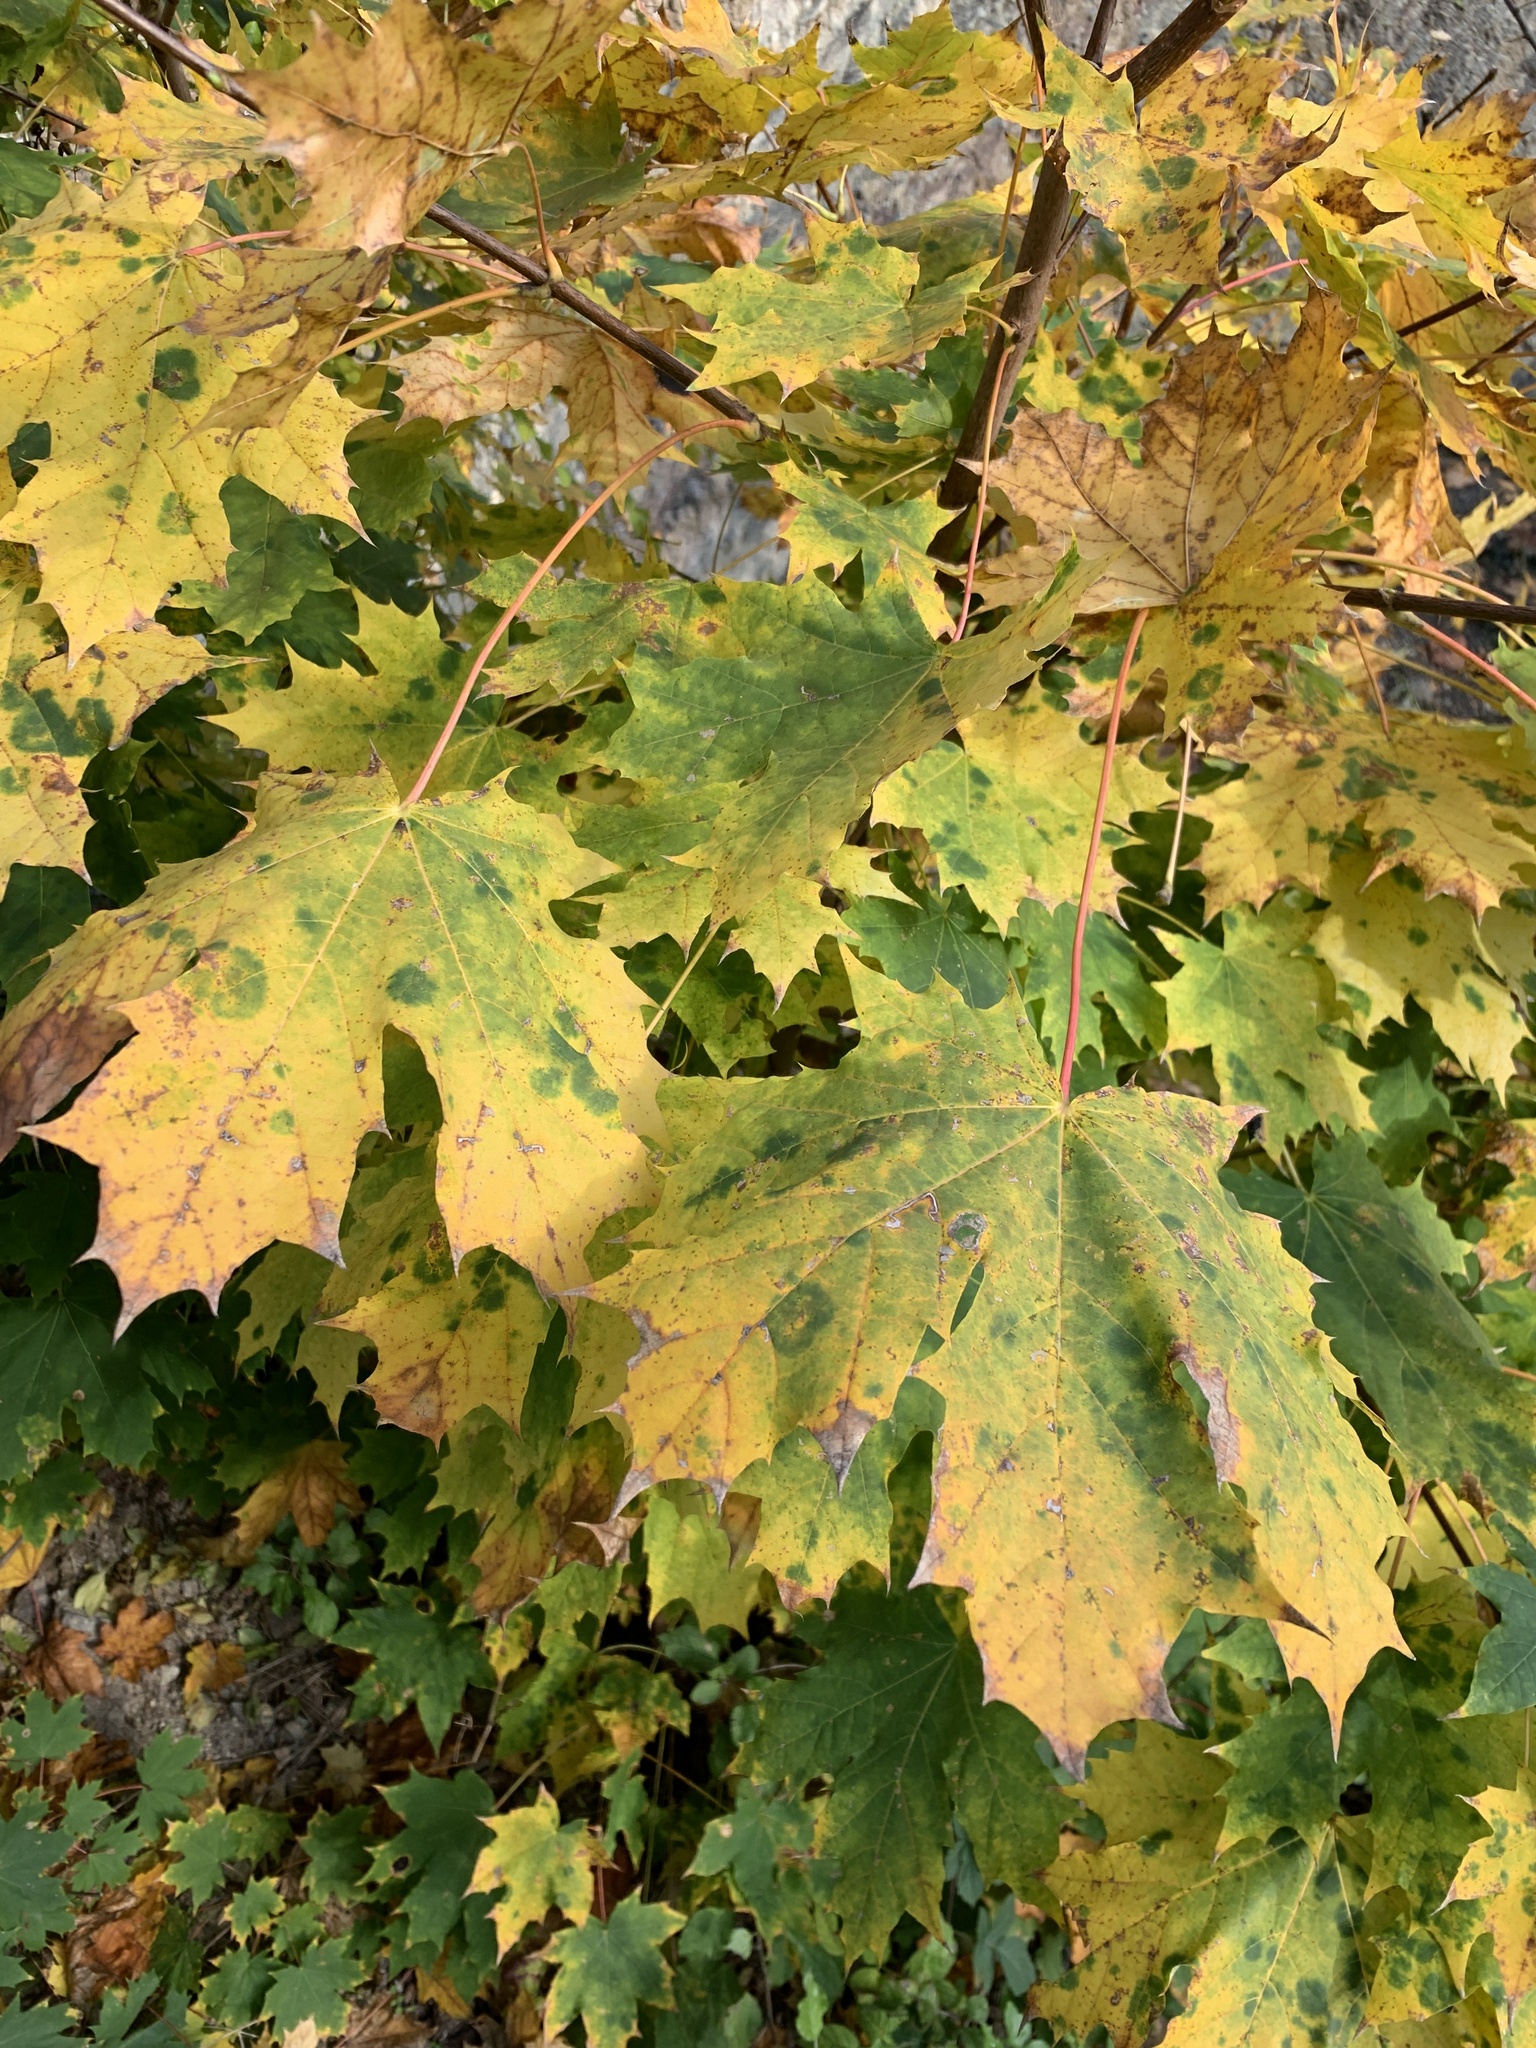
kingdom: Plantae
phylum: Tracheophyta
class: Magnoliopsida
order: Sapindales
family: Sapindaceae
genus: Acer
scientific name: Acer platanoides
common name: Norway maple
